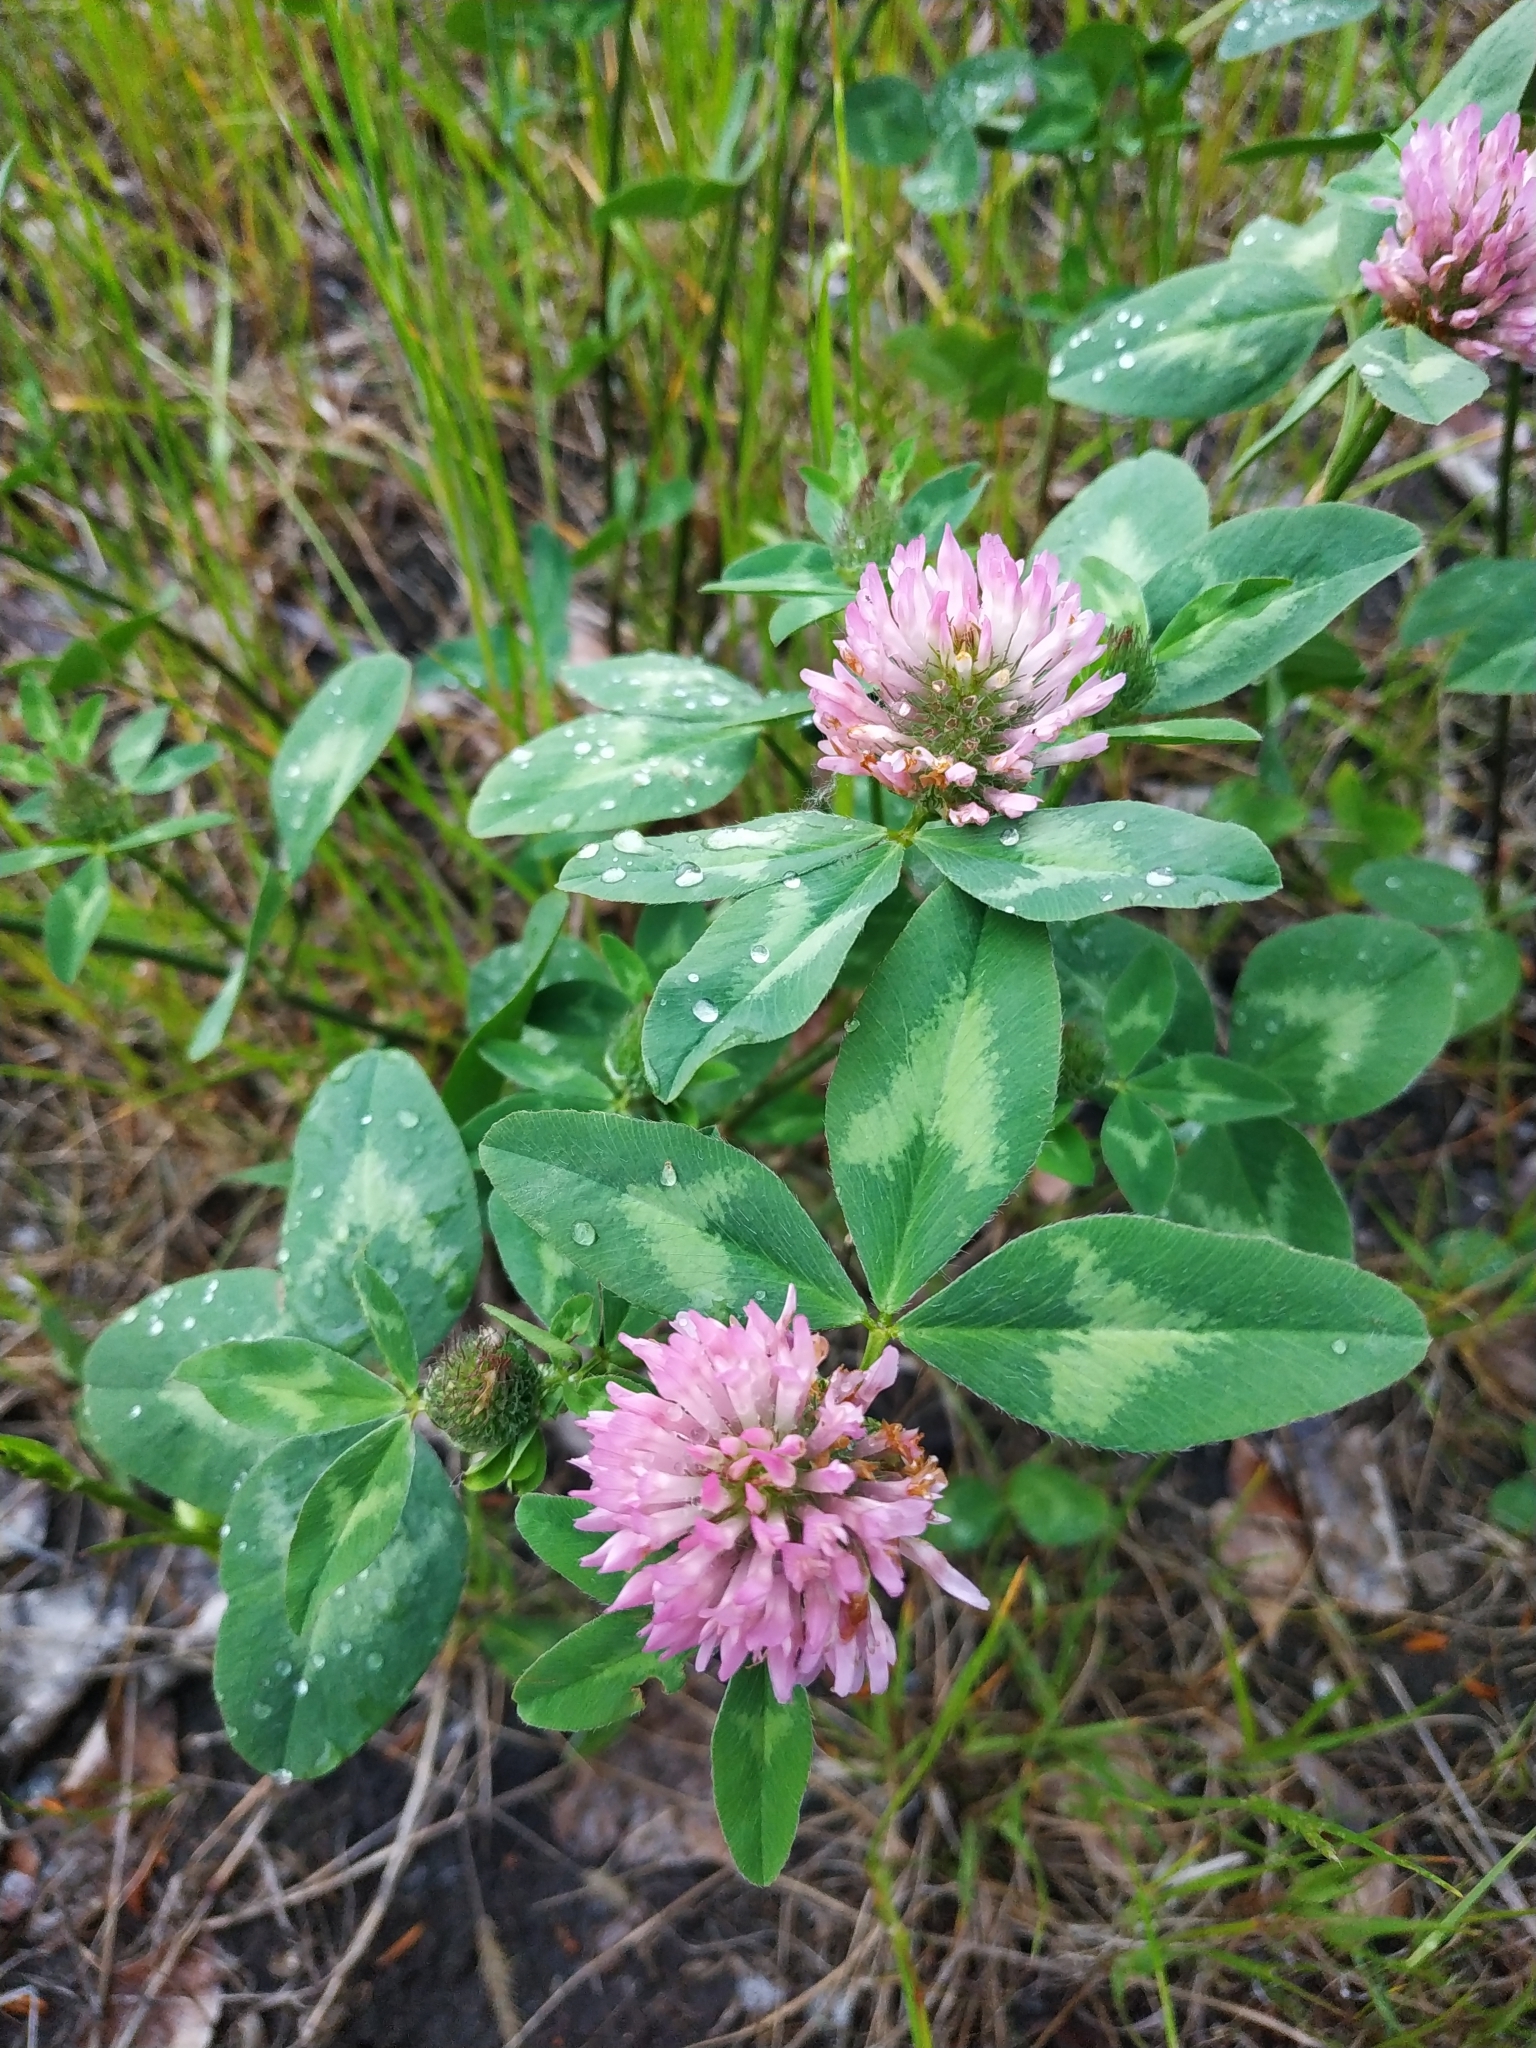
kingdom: Plantae
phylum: Tracheophyta
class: Magnoliopsida
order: Fabales
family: Fabaceae
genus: Trifolium
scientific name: Trifolium pratense
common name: Red clover
